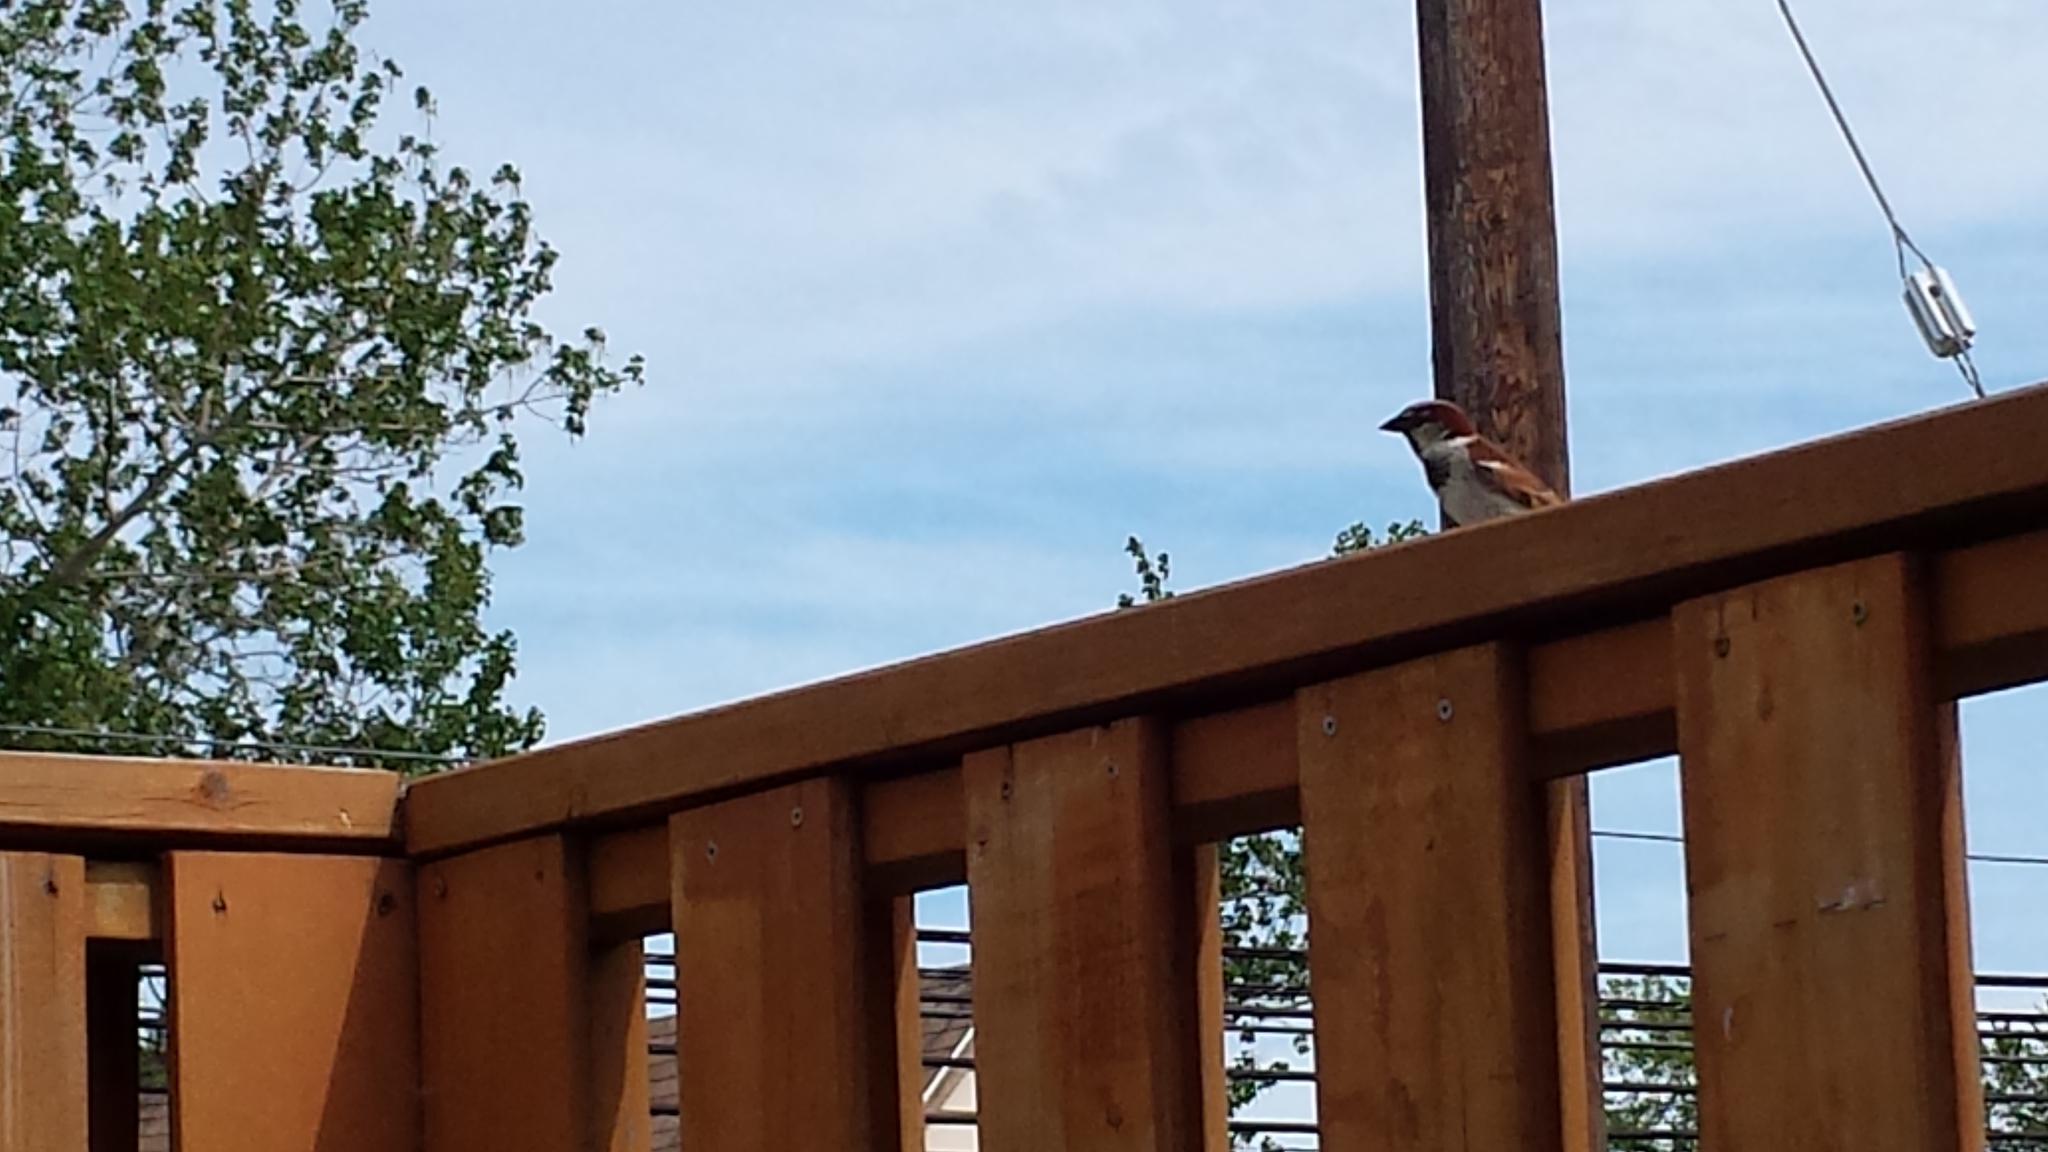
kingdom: Animalia
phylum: Chordata
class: Aves
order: Passeriformes
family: Passeridae
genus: Passer
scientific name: Passer domesticus
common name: House sparrow
